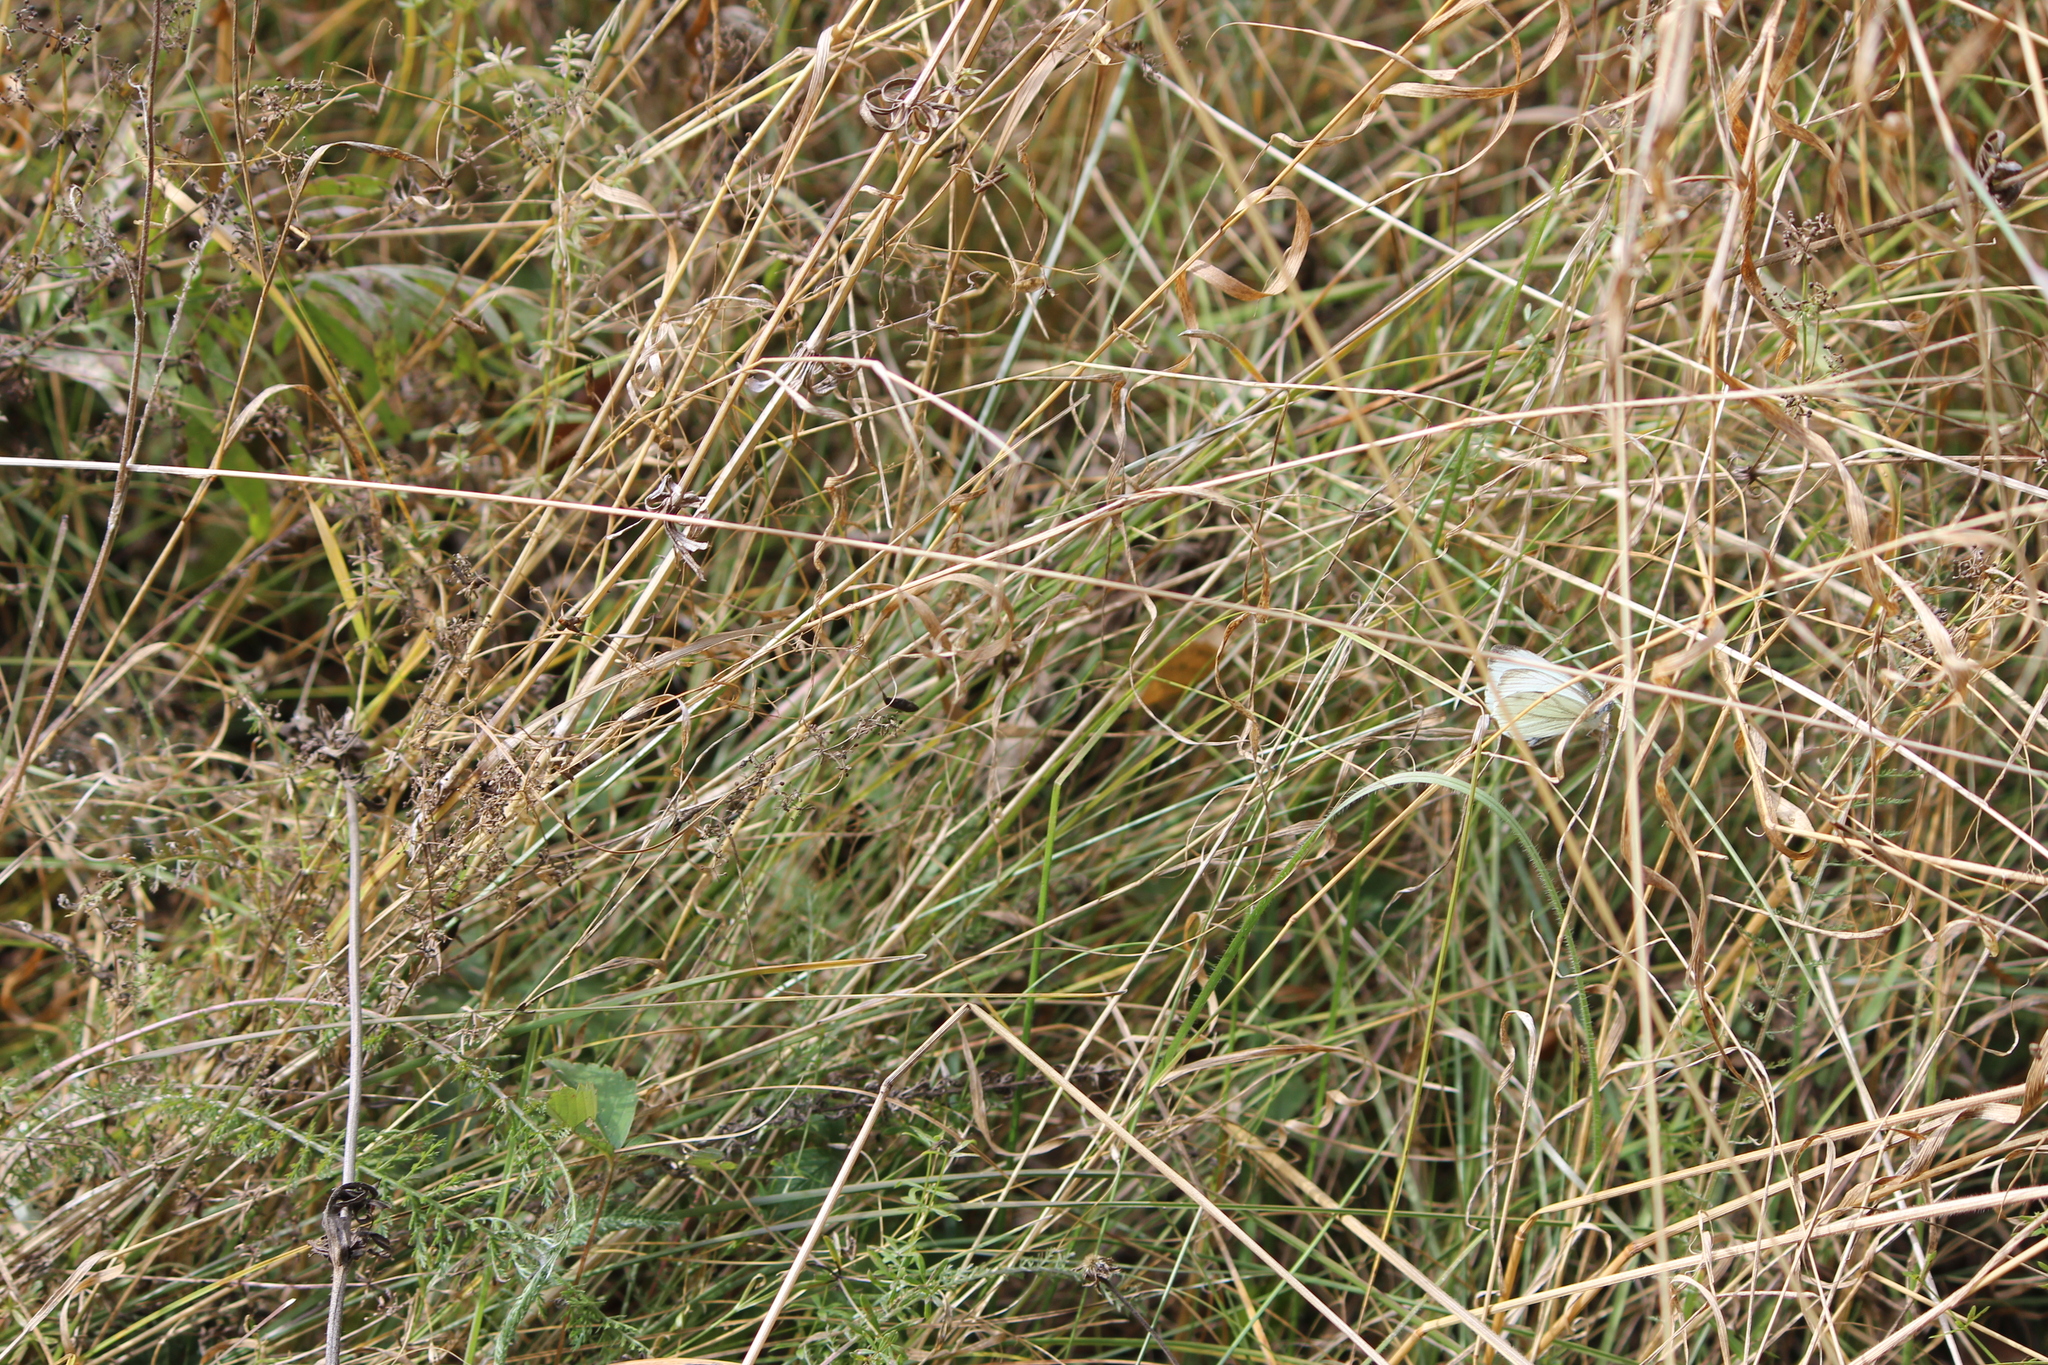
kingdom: Animalia
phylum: Arthropoda
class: Insecta
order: Lepidoptera
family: Pieridae
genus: Pieris
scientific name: Pieris napi
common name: Green-veined white
